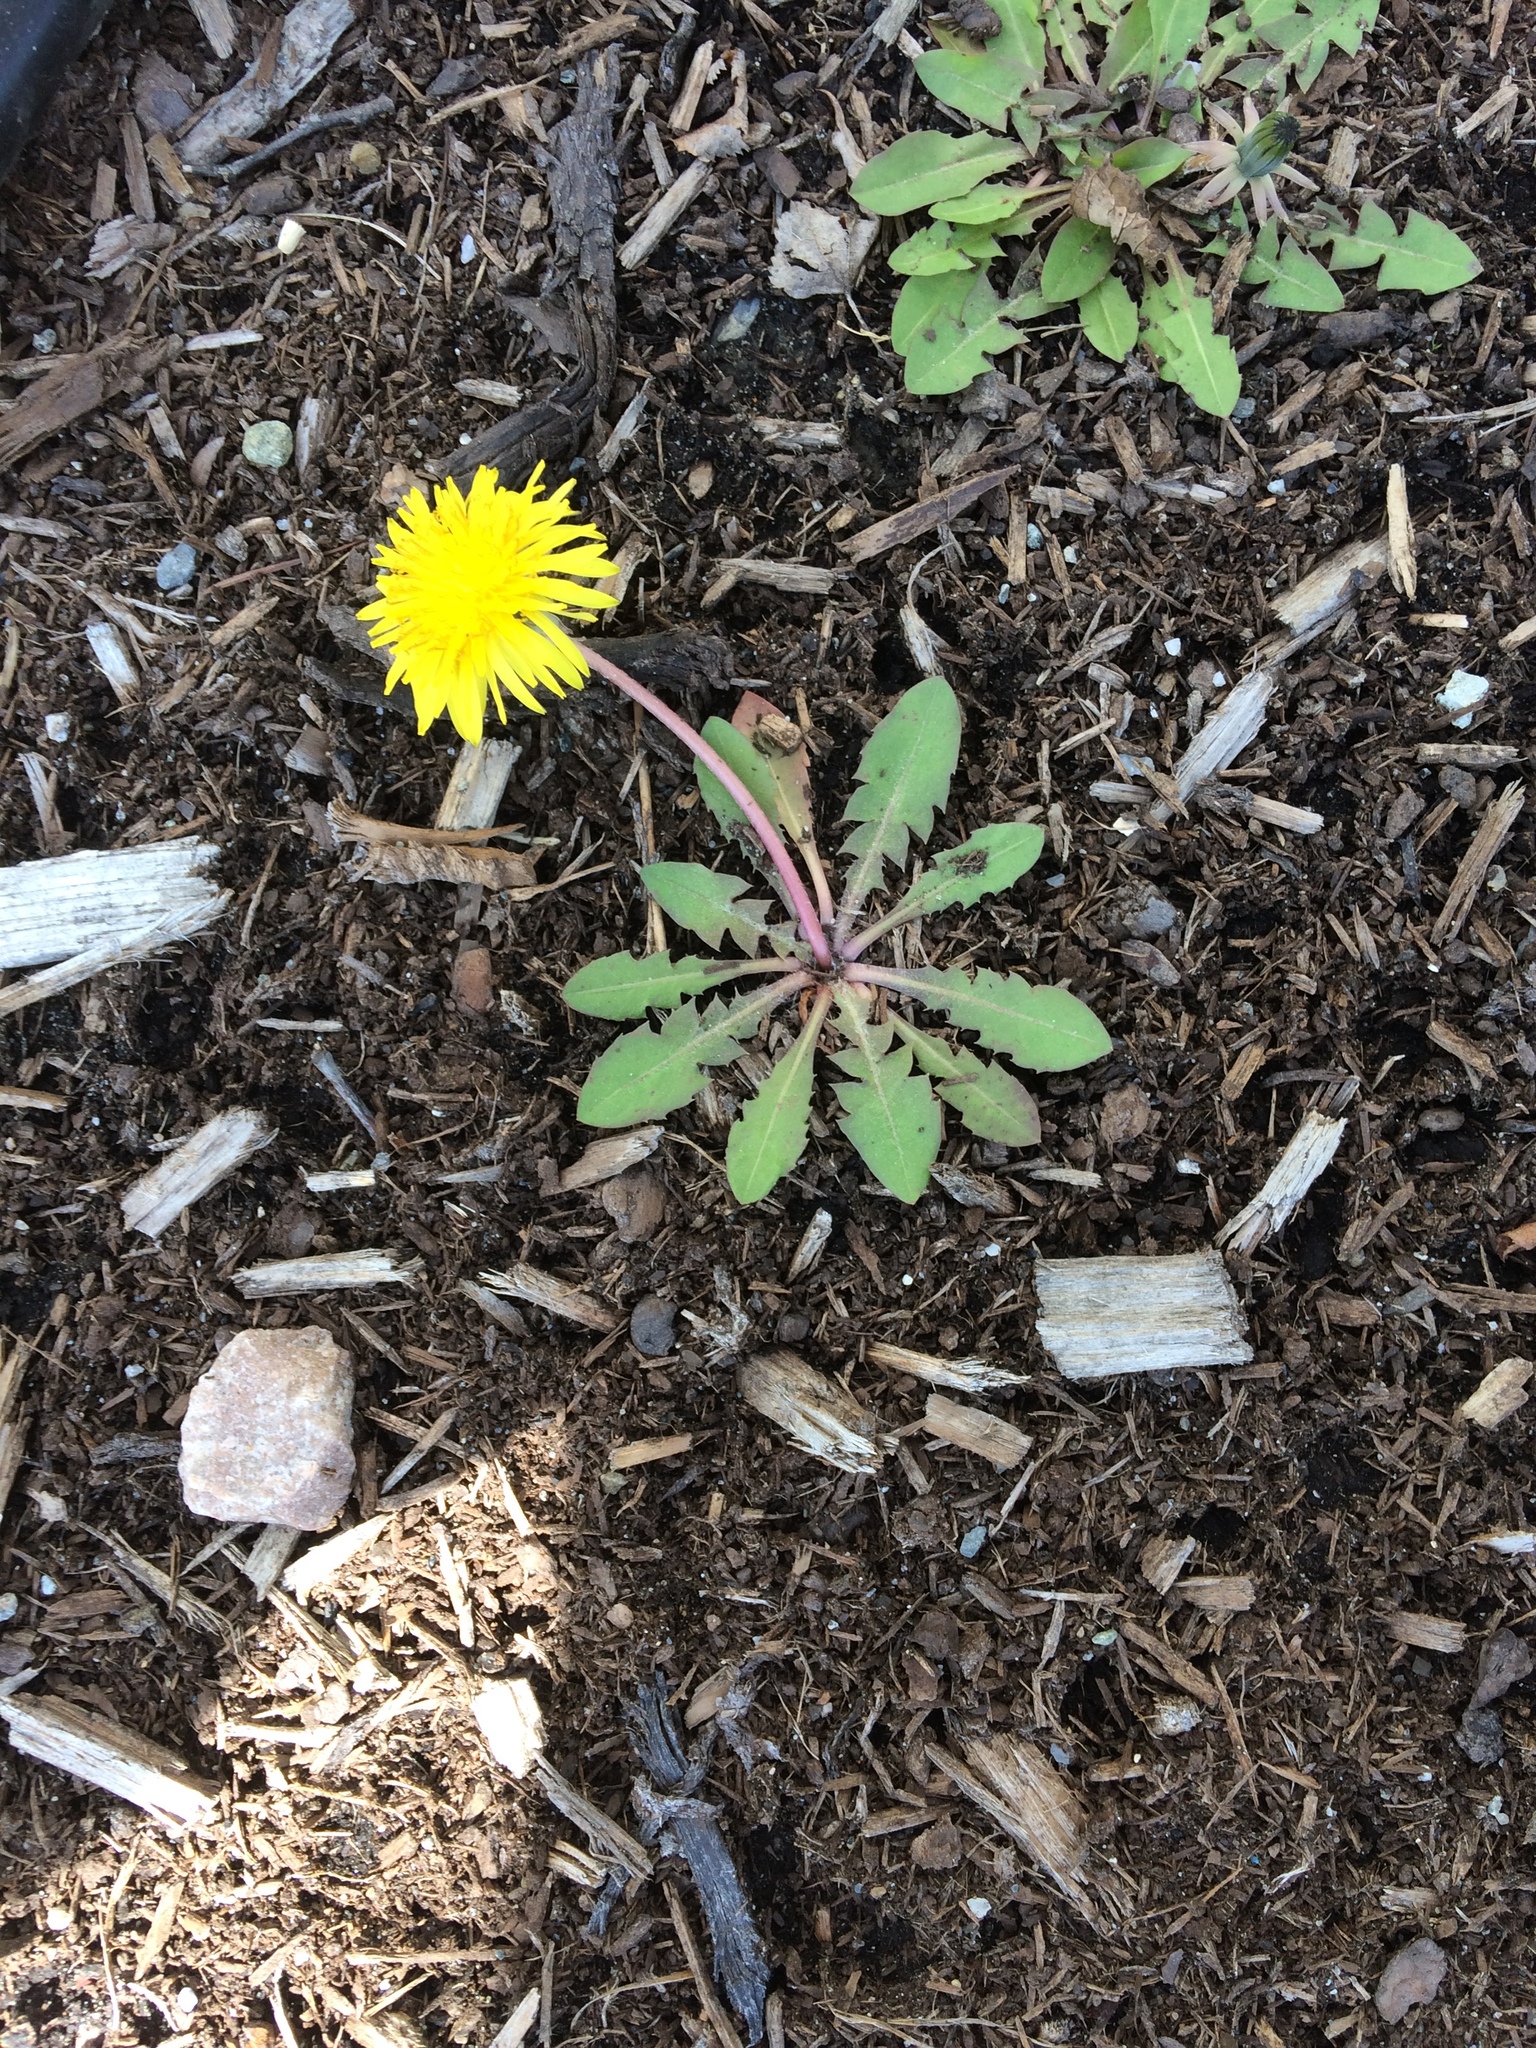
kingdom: Plantae
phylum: Tracheophyta
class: Magnoliopsida
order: Asterales
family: Asteraceae
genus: Taraxacum
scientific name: Taraxacum officinale
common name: Common dandelion
